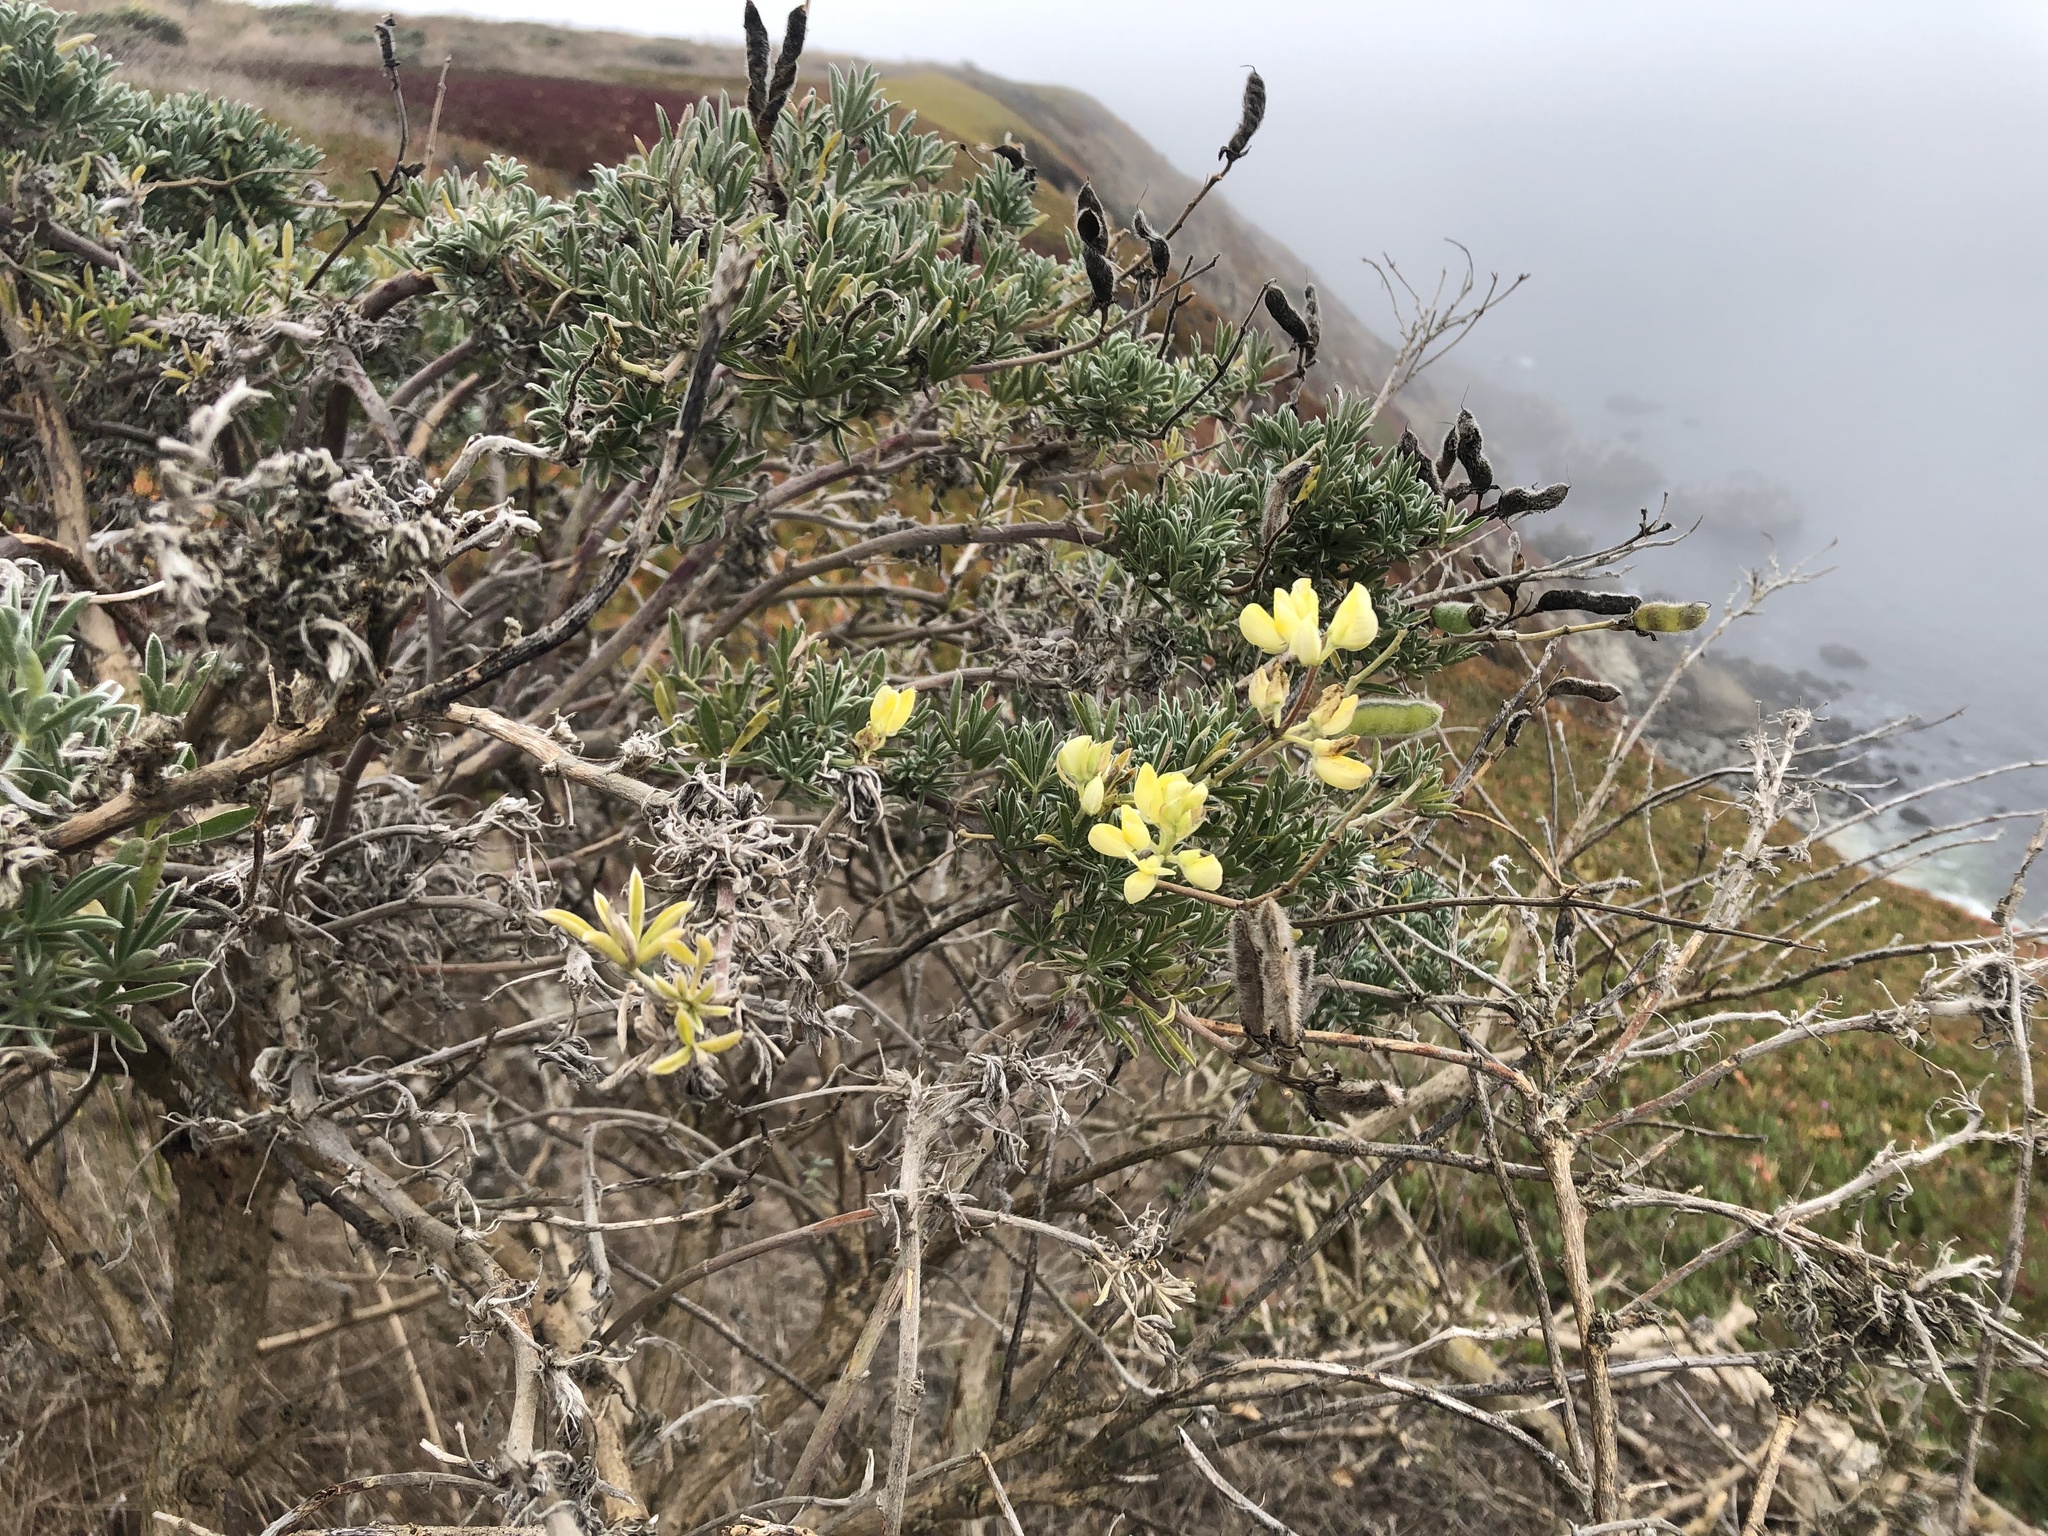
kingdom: Plantae
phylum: Tracheophyta
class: Magnoliopsida
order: Fabales
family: Fabaceae
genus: Lupinus
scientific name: Lupinus arboreus
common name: Yellow bush lupine
